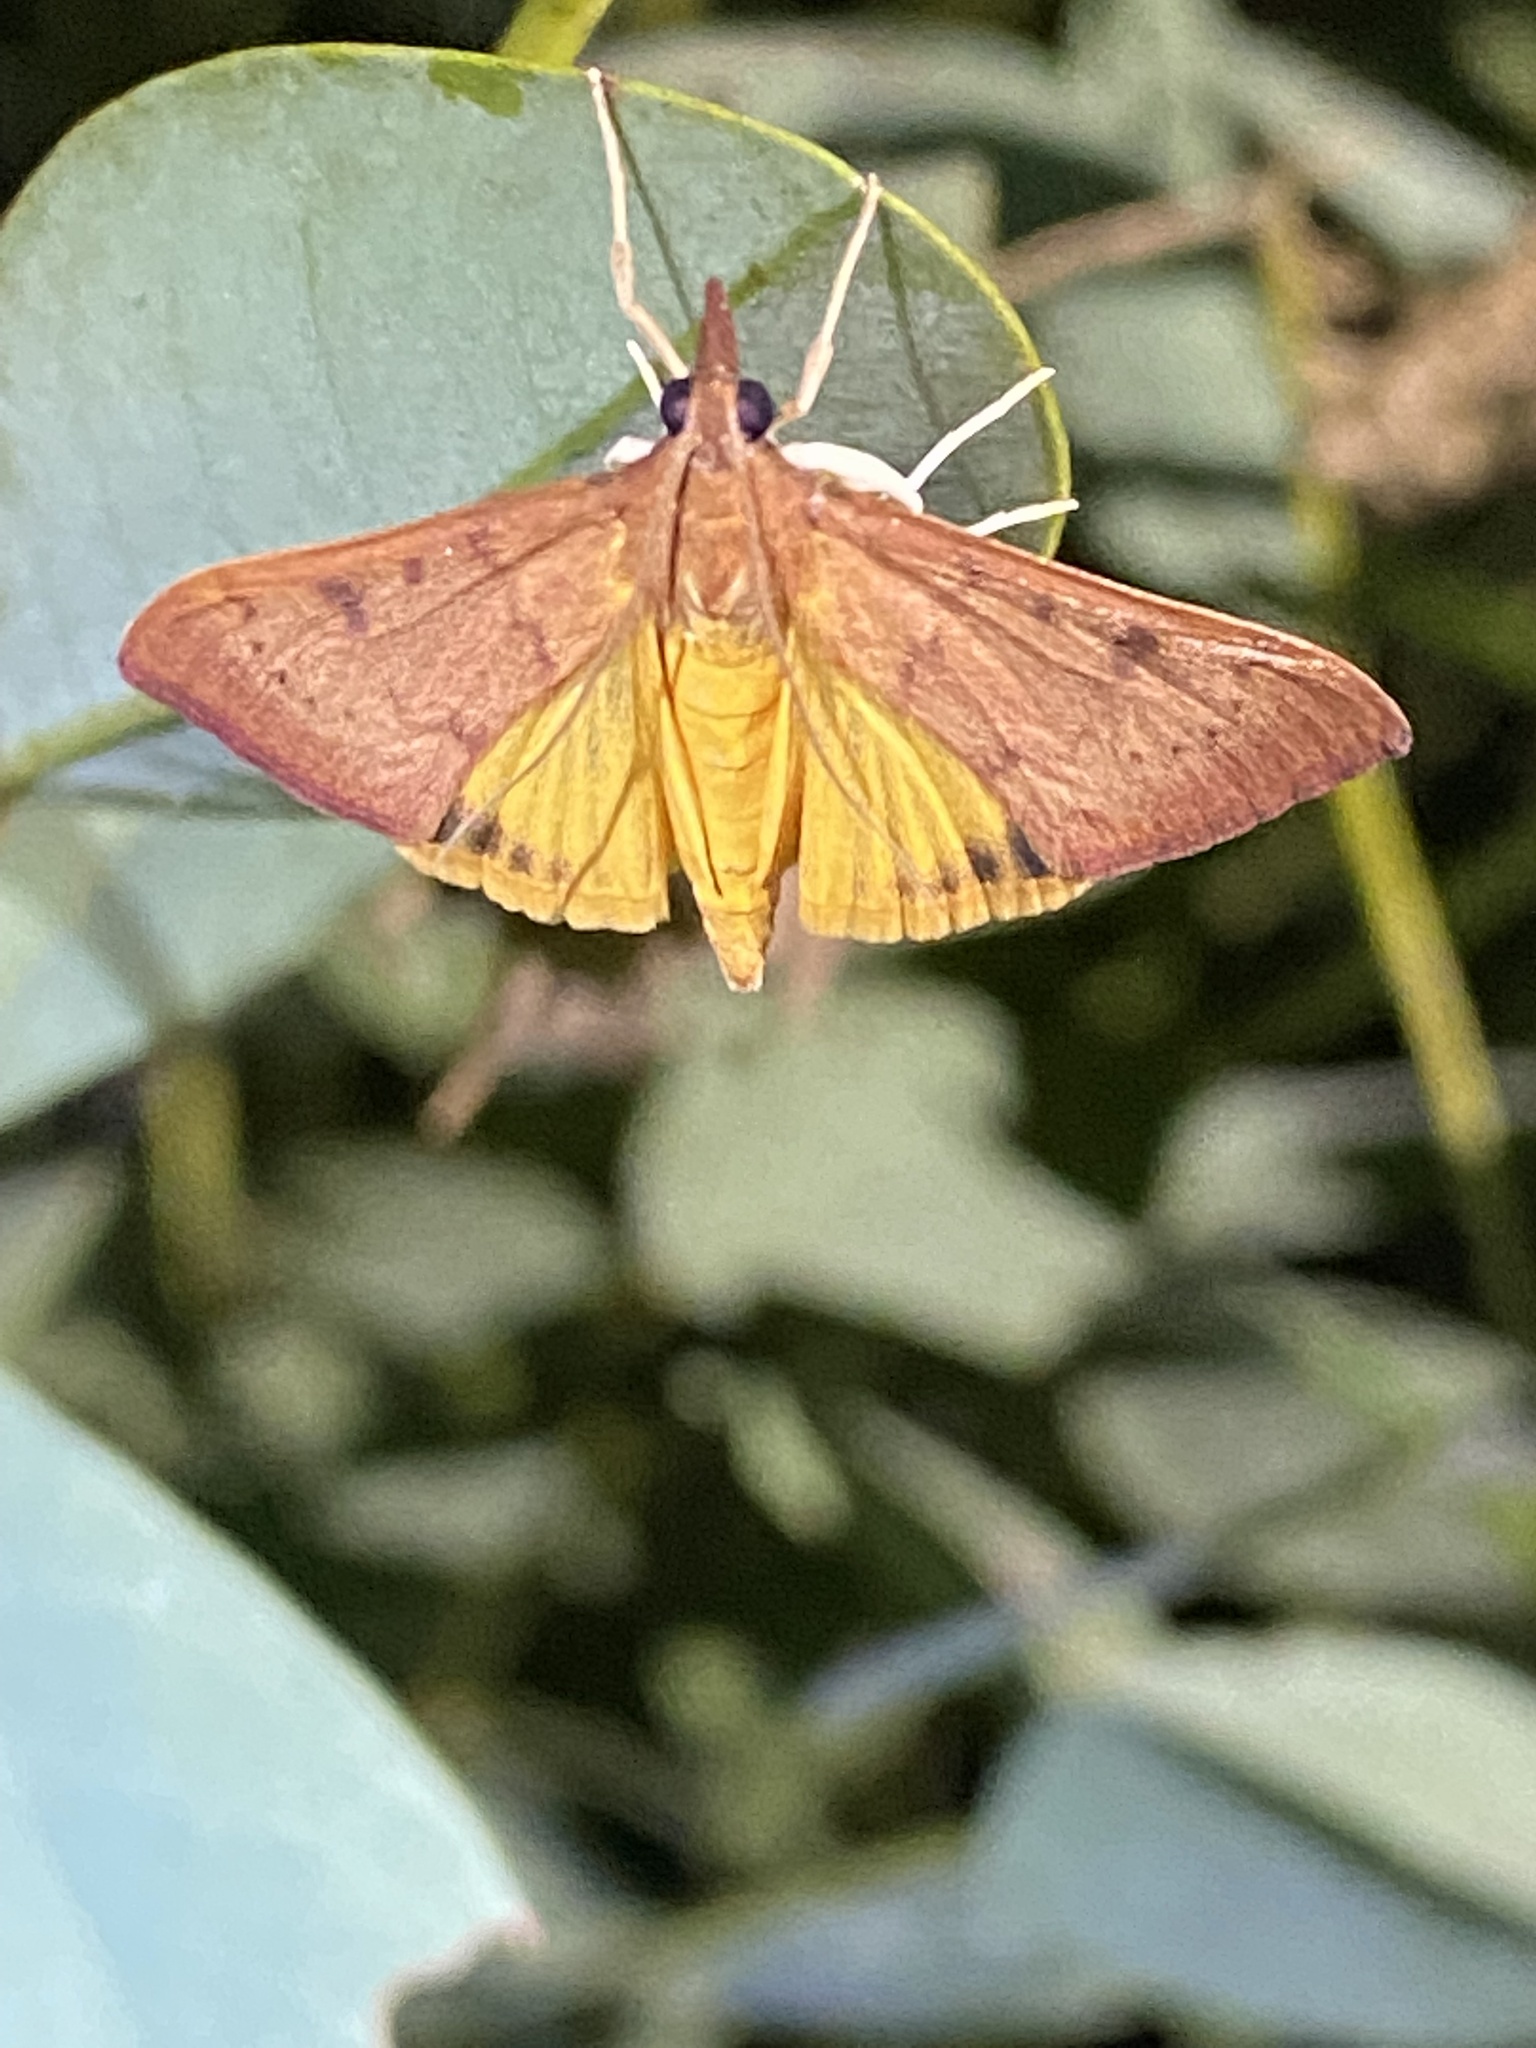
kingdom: Animalia
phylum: Arthropoda
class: Insecta
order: Lepidoptera
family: Crambidae
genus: Uresiphita
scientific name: Uresiphita reversalis
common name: Genista broom moth
